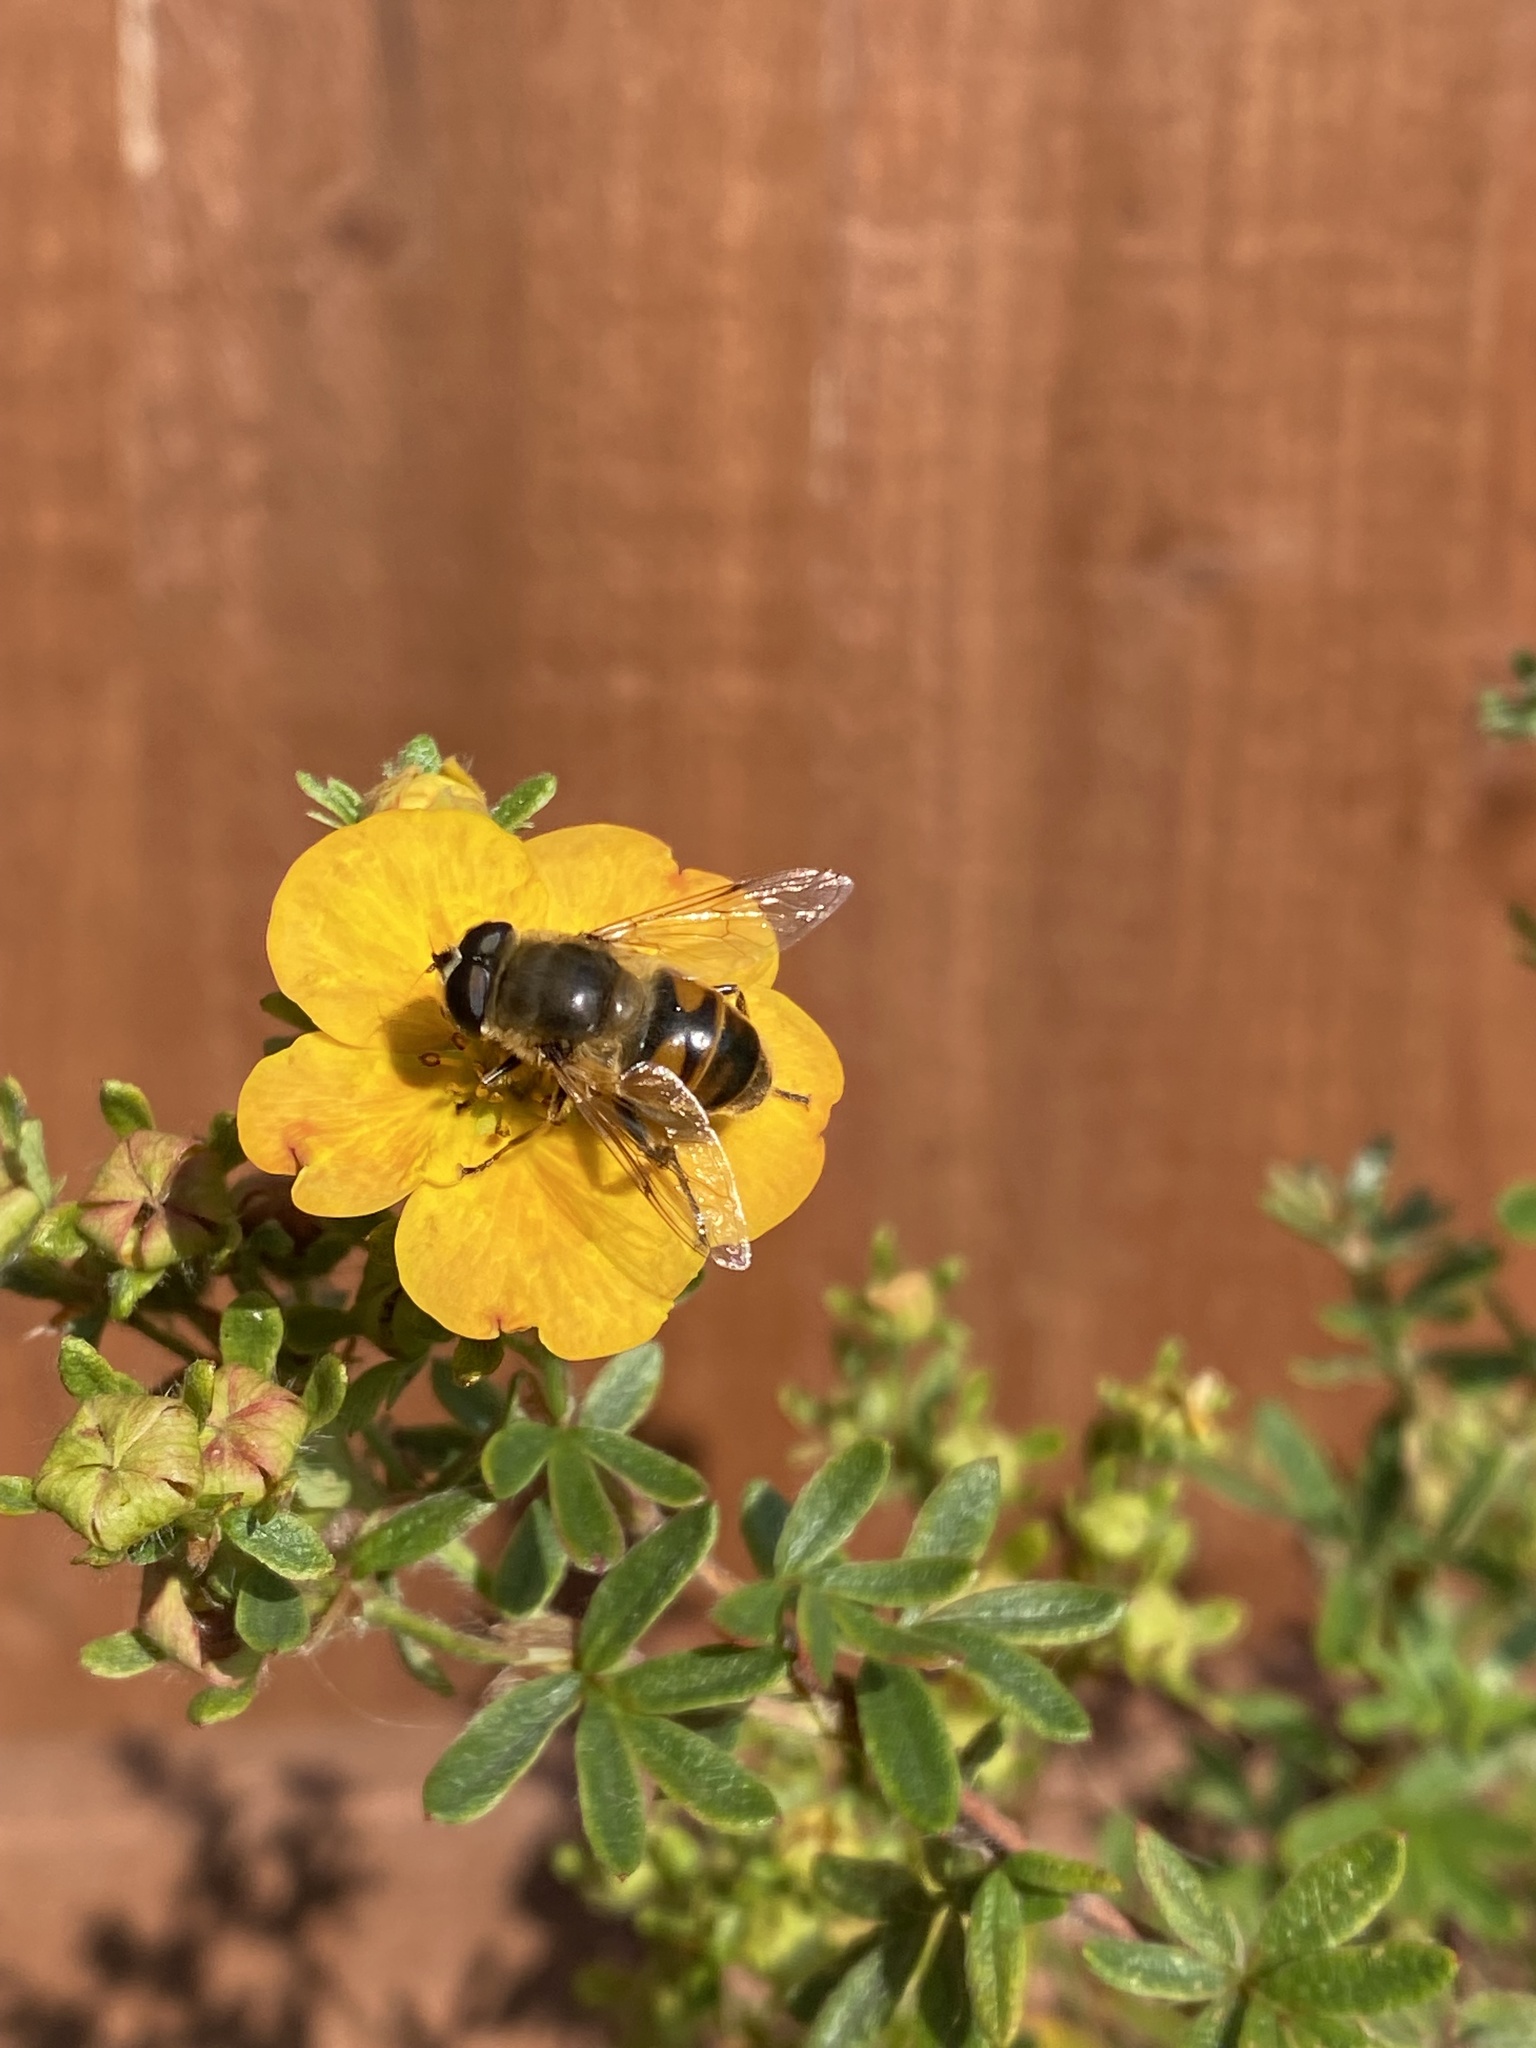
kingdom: Animalia
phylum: Arthropoda
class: Insecta
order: Diptera
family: Syrphidae
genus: Eristalis
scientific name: Eristalis tenax
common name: Drone fly
